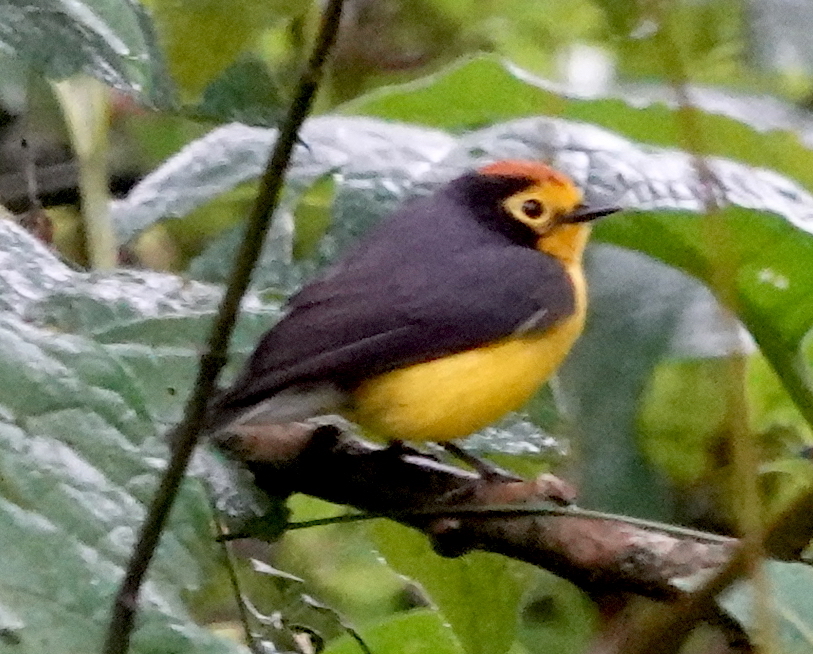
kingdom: Animalia
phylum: Chordata
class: Aves
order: Passeriformes
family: Parulidae
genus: Myioborus
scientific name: Myioborus melanocephalus
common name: Spectacled whitestart
